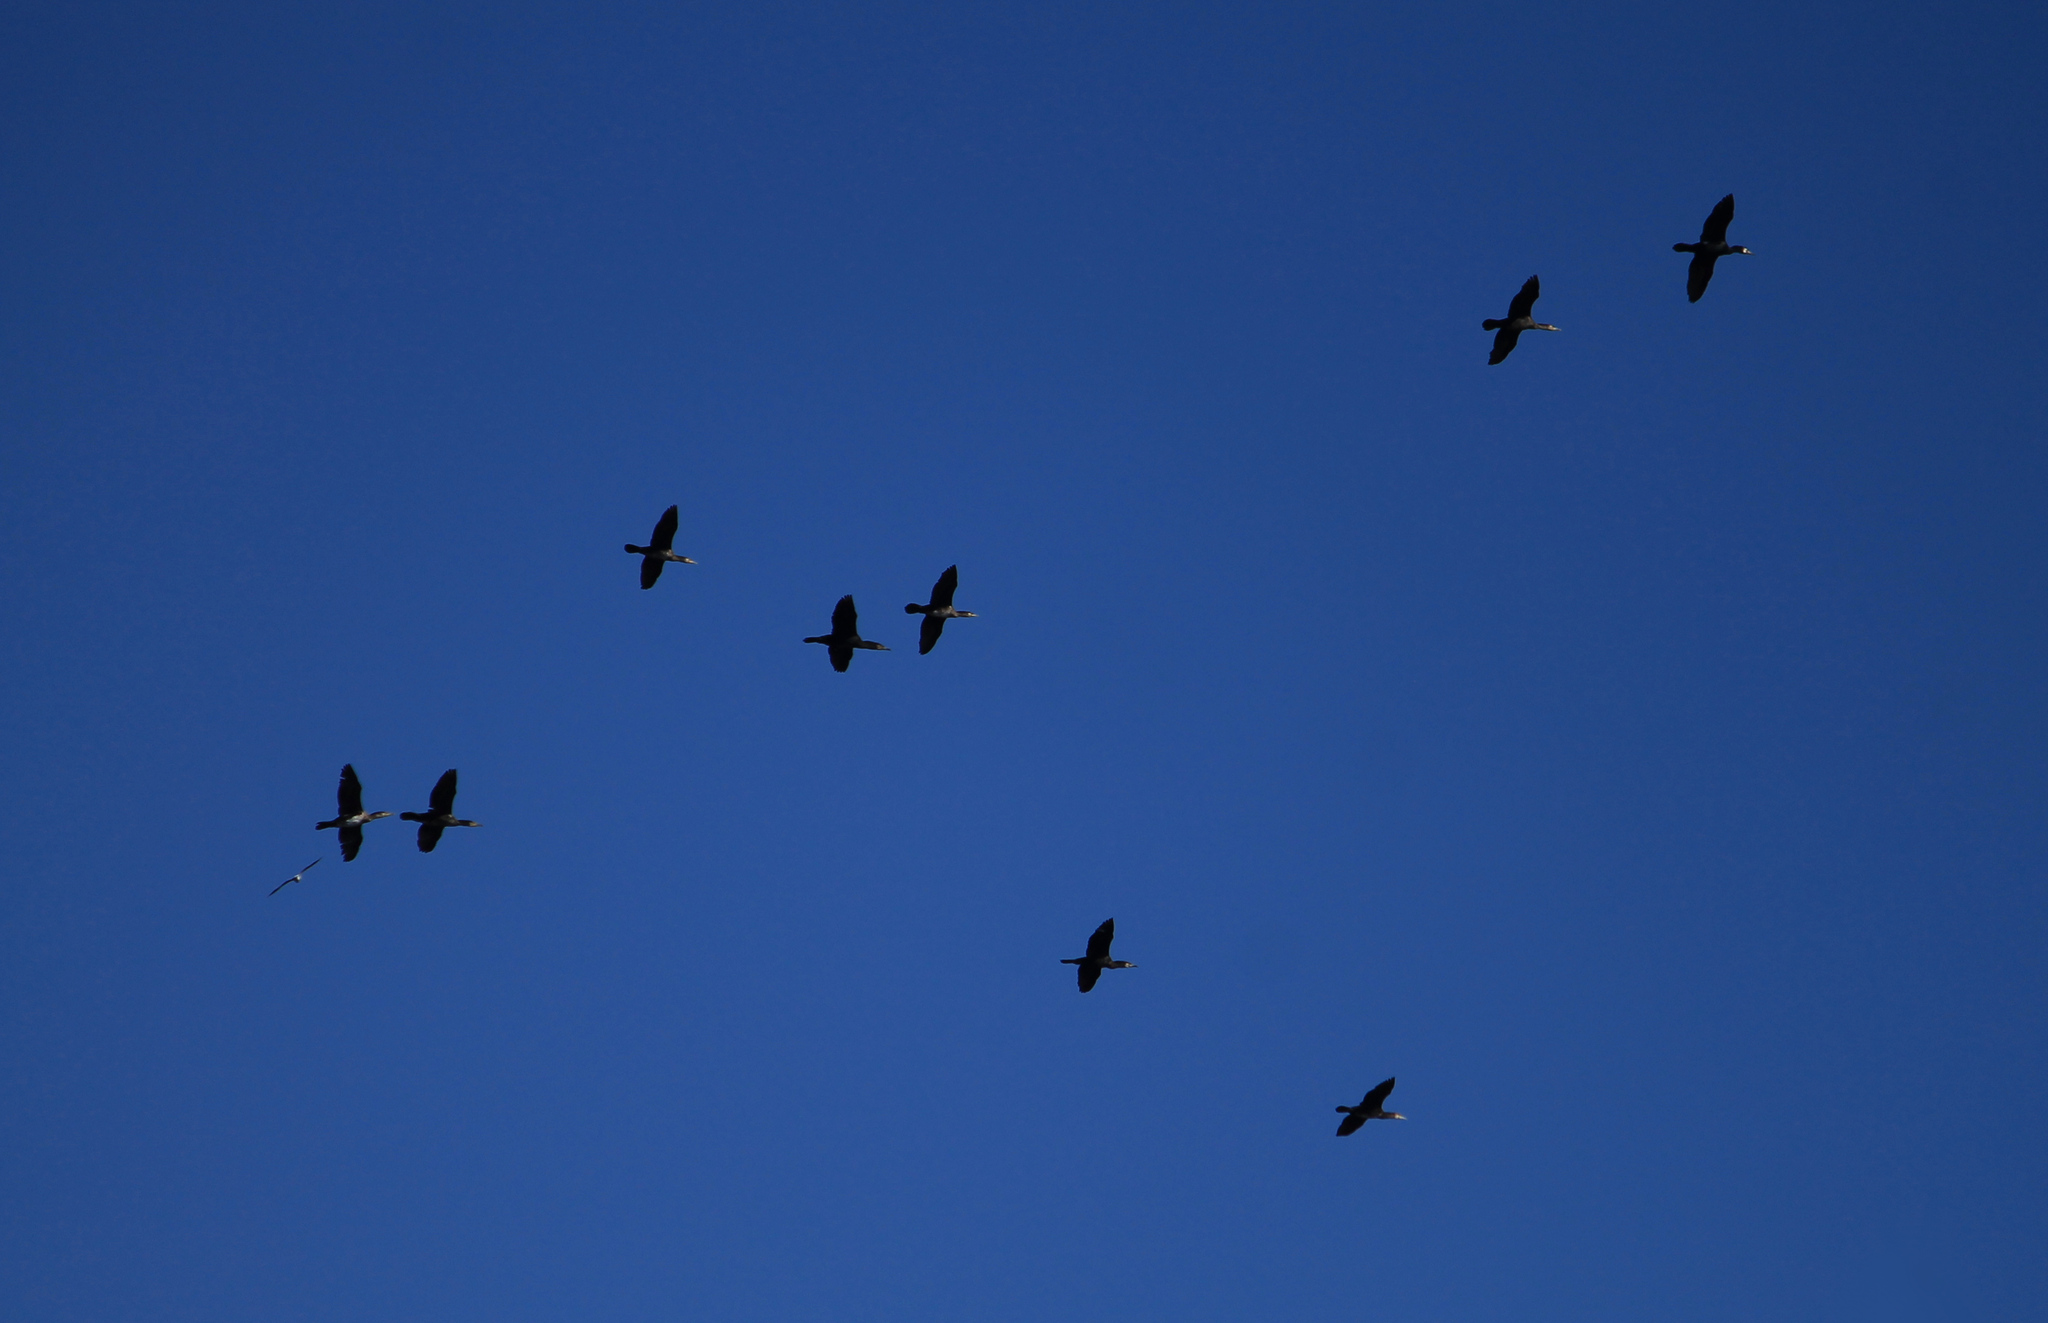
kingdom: Animalia
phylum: Chordata
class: Aves
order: Suliformes
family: Phalacrocoracidae
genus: Phalacrocorax
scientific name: Phalacrocorax carbo
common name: Great cormorant
